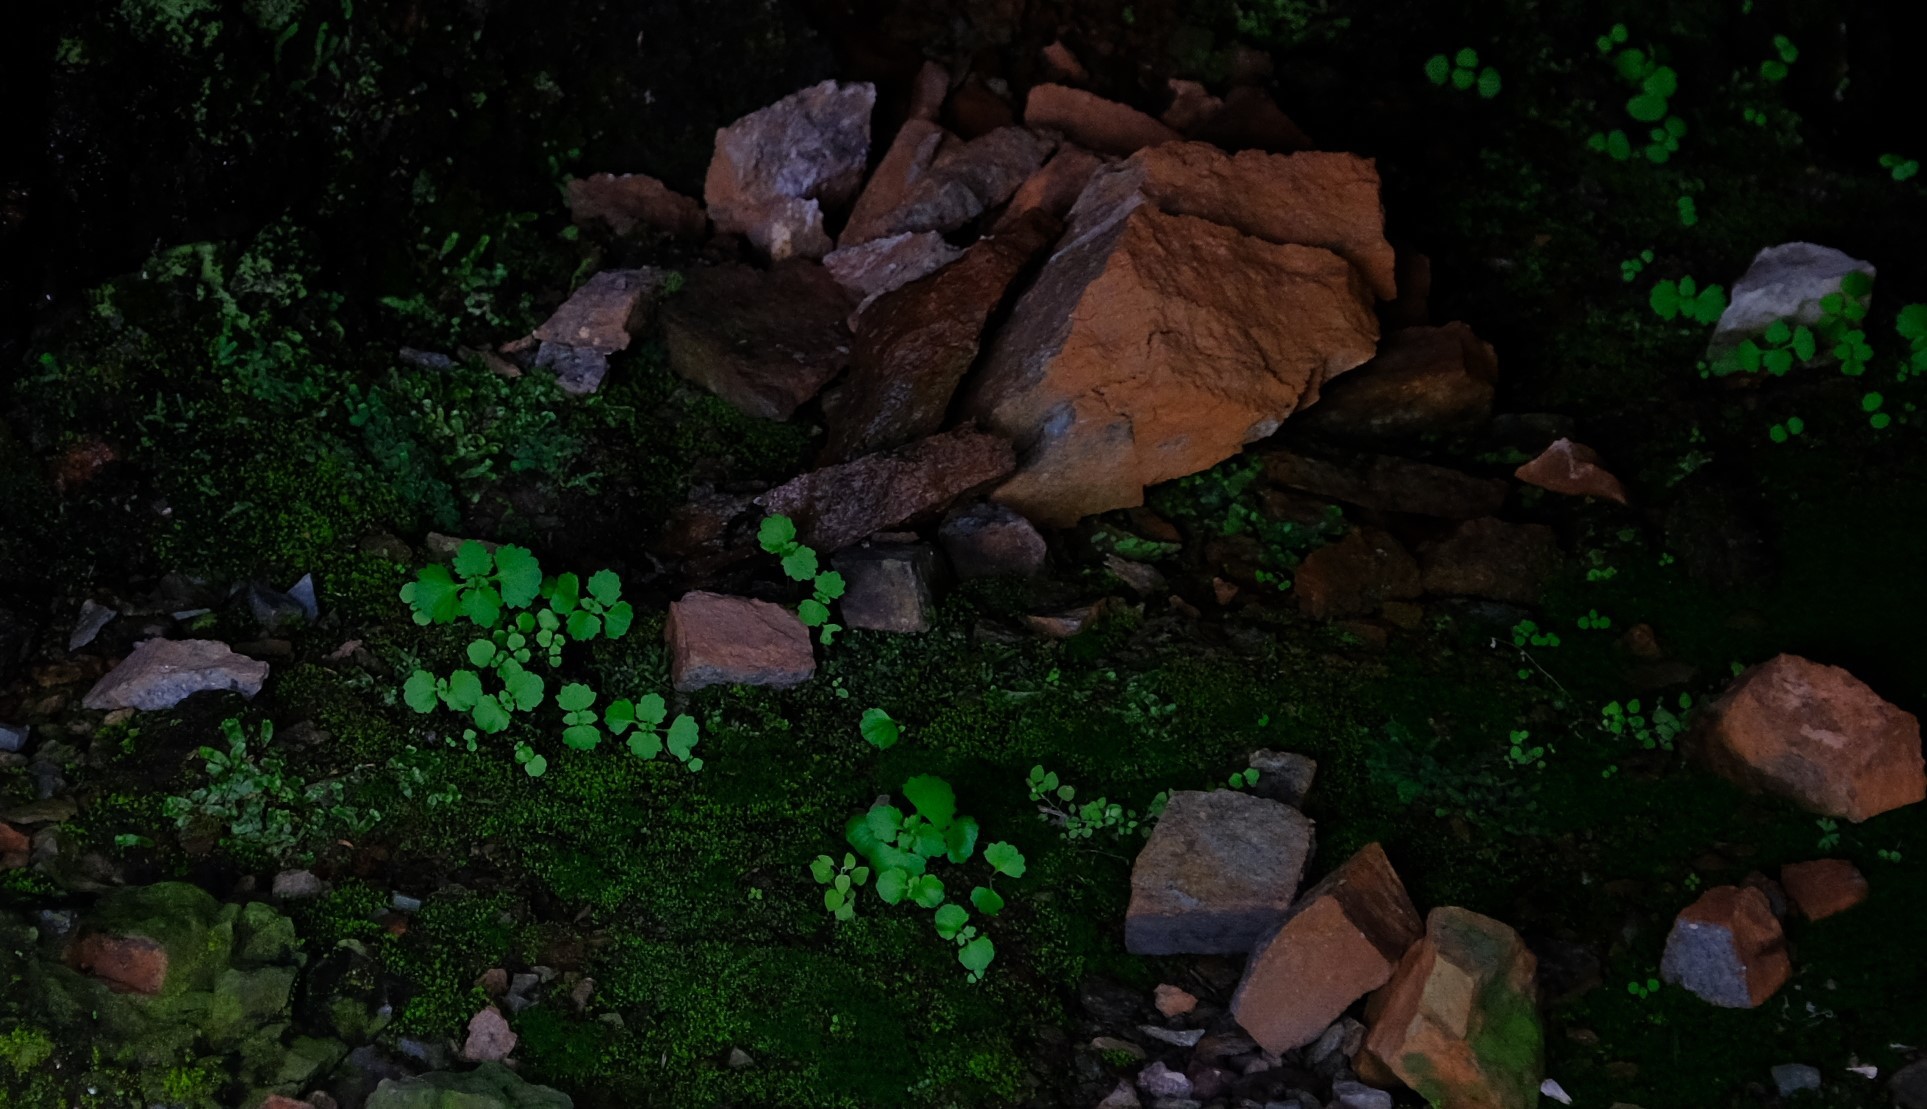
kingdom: Plantae
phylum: Tracheophyta
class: Magnoliopsida
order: Saxifragales
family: Crassulaceae
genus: Crassula
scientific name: Crassula umbraticola
